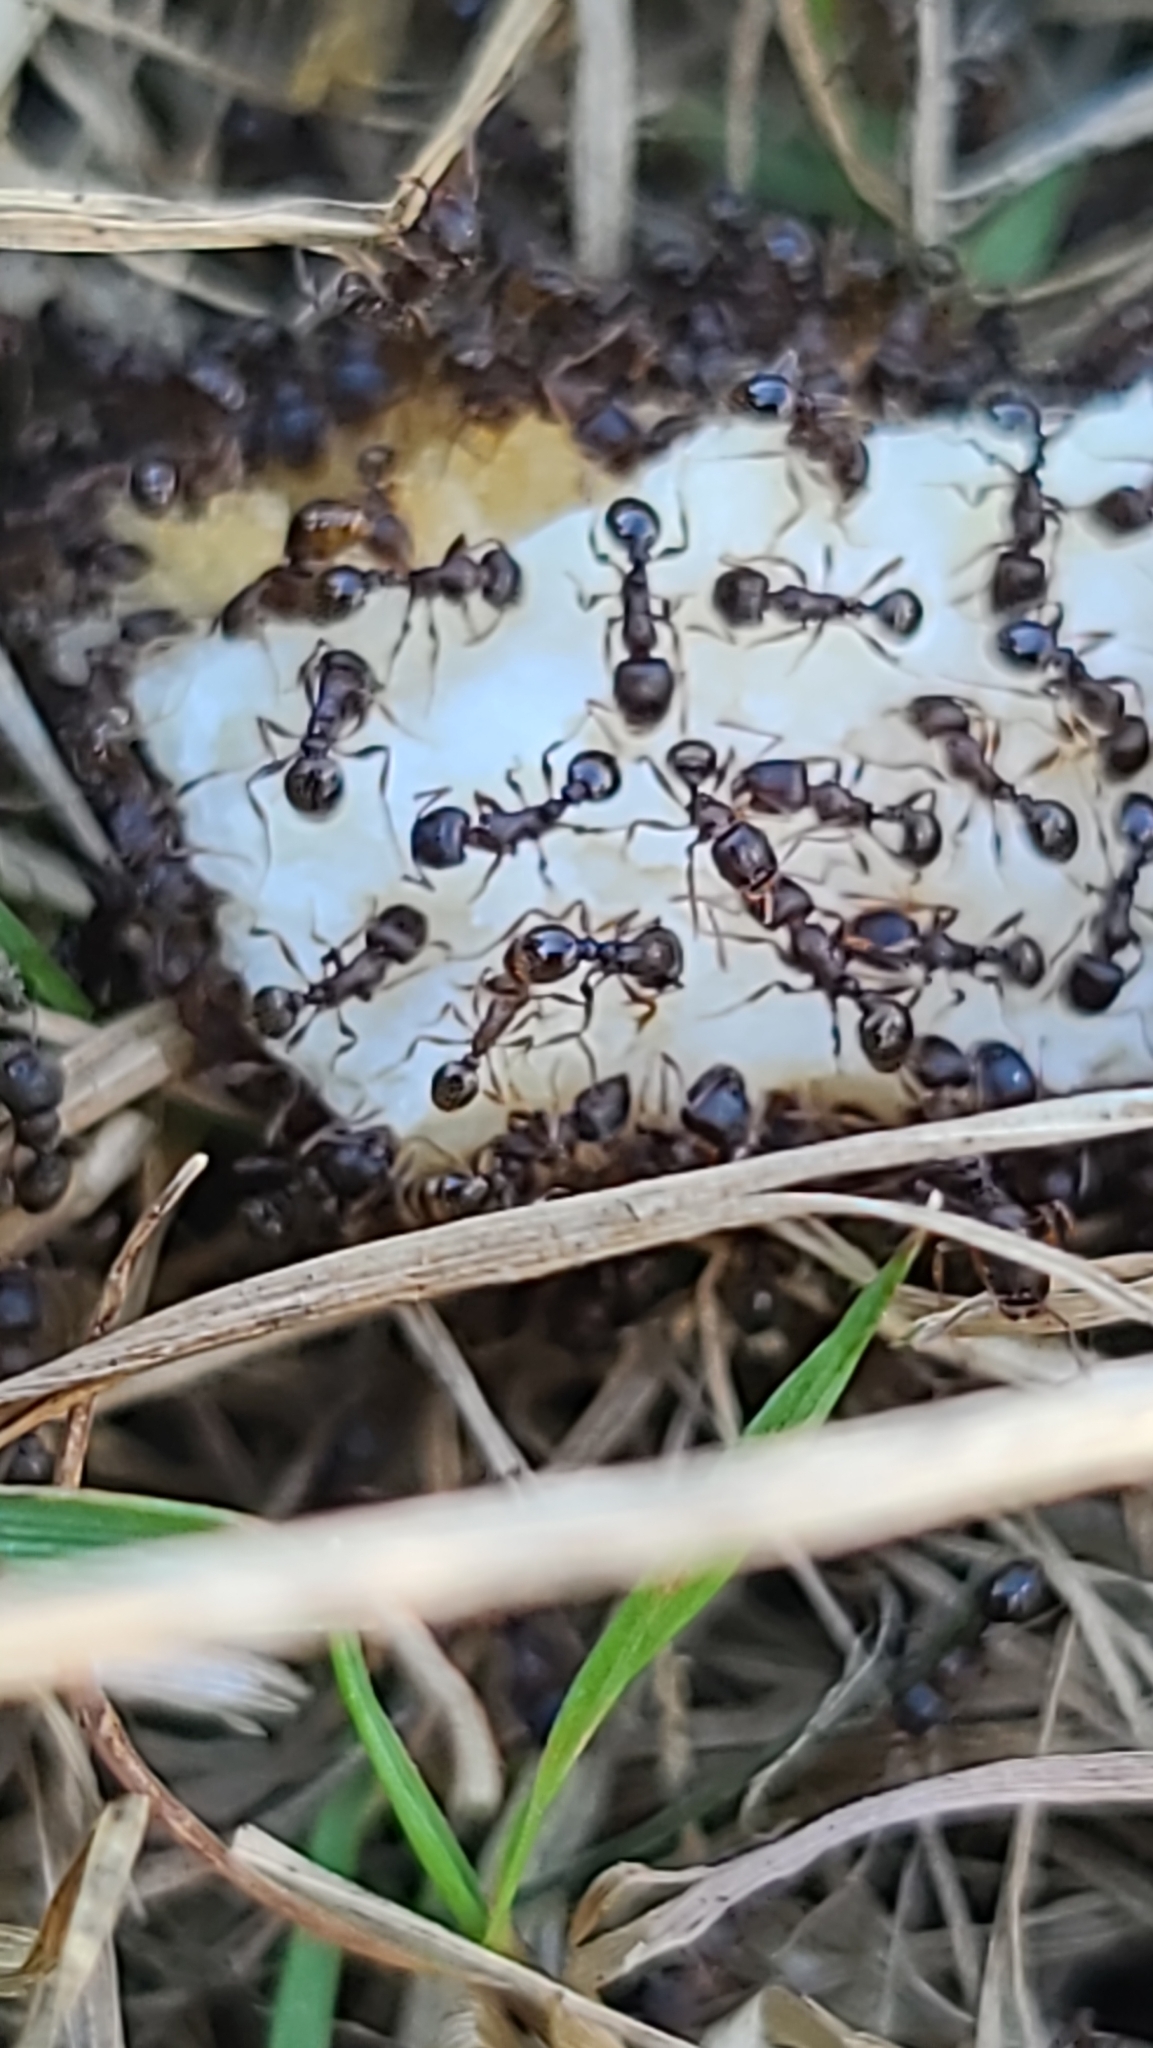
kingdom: Animalia
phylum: Arthropoda
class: Insecta
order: Hymenoptera
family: Formicidae
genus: Tetramorium
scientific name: Tetramorium immigrans
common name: Pavement ant
